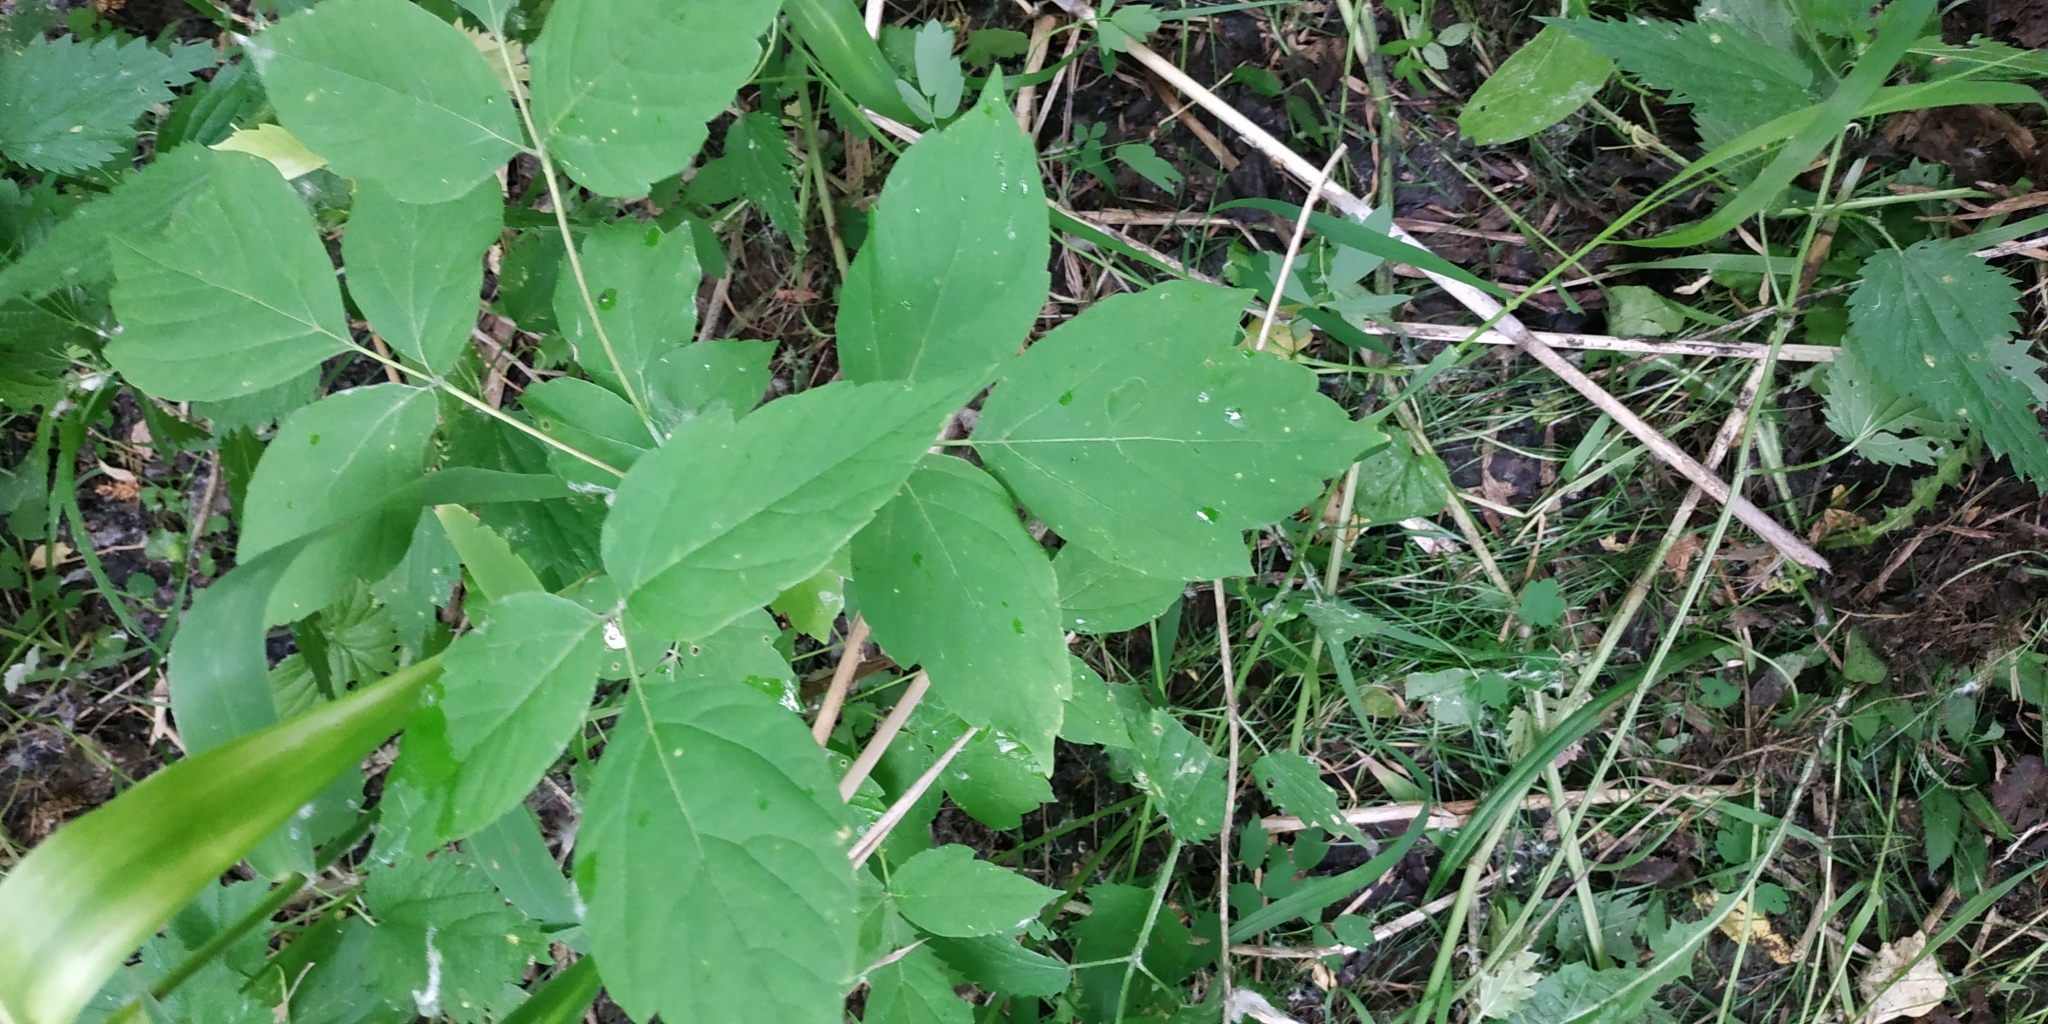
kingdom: Plantae
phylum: Tracheophyta
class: Magnoliopsida
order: Sapindales
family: Sapindaceae
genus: Acer
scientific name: Acer negundo
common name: Ashleaf maple
